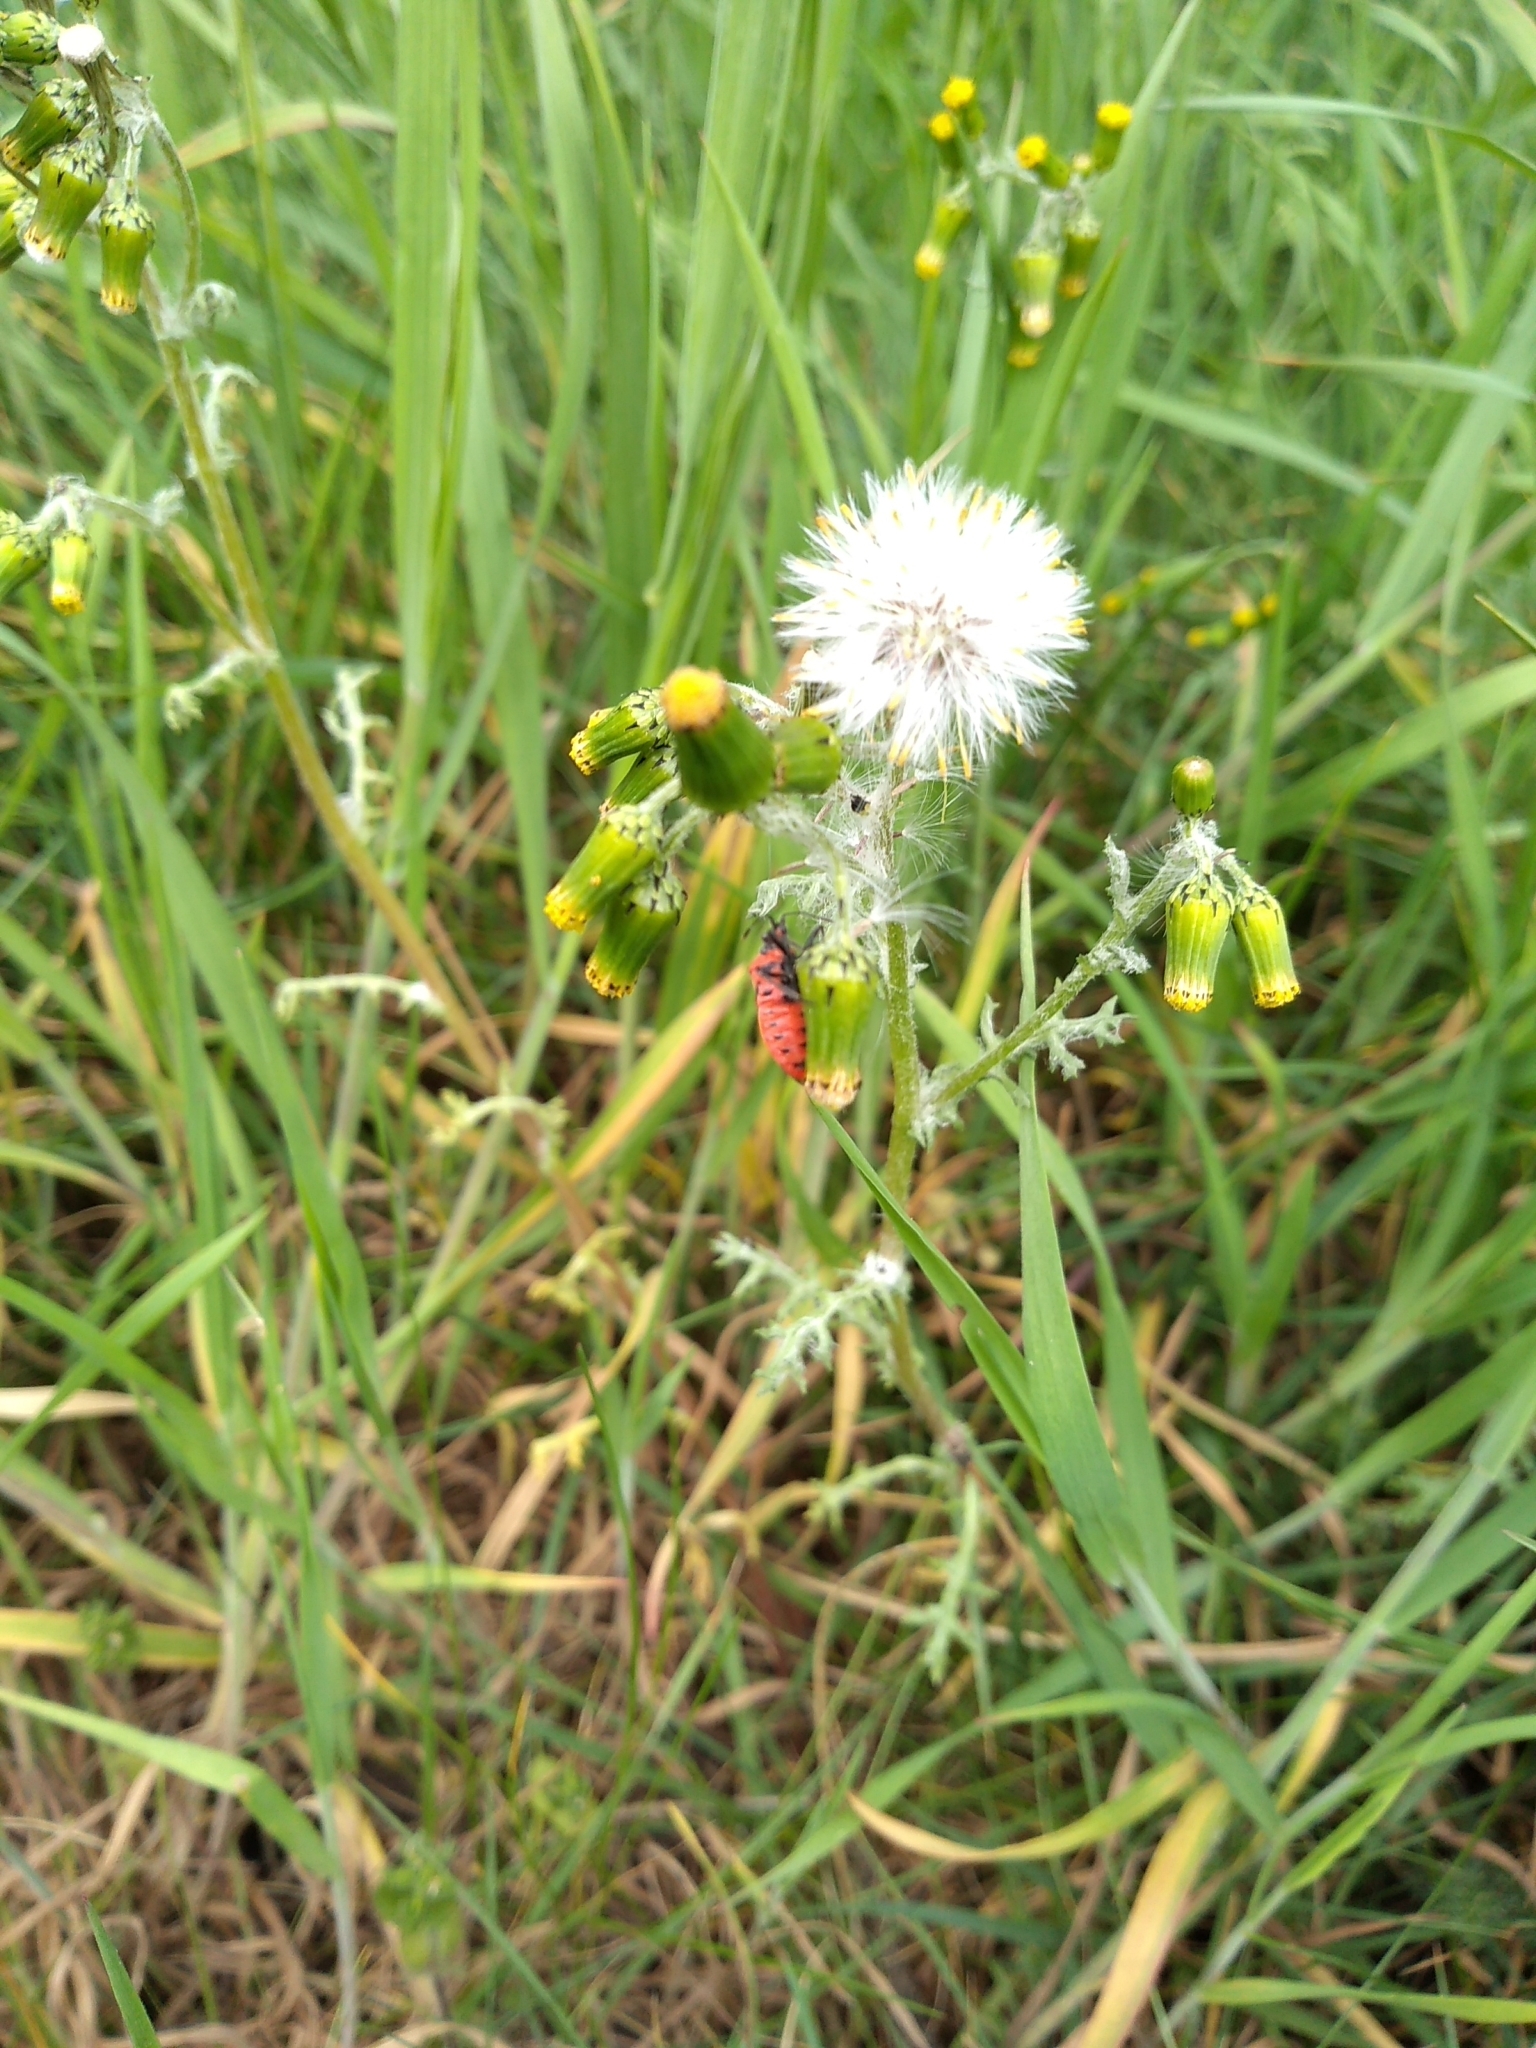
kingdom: Animalia
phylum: Arthropoda
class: Insecta
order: Hemiptera
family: Rhopalidae
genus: Corizus
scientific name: Corizus hyoscyami
